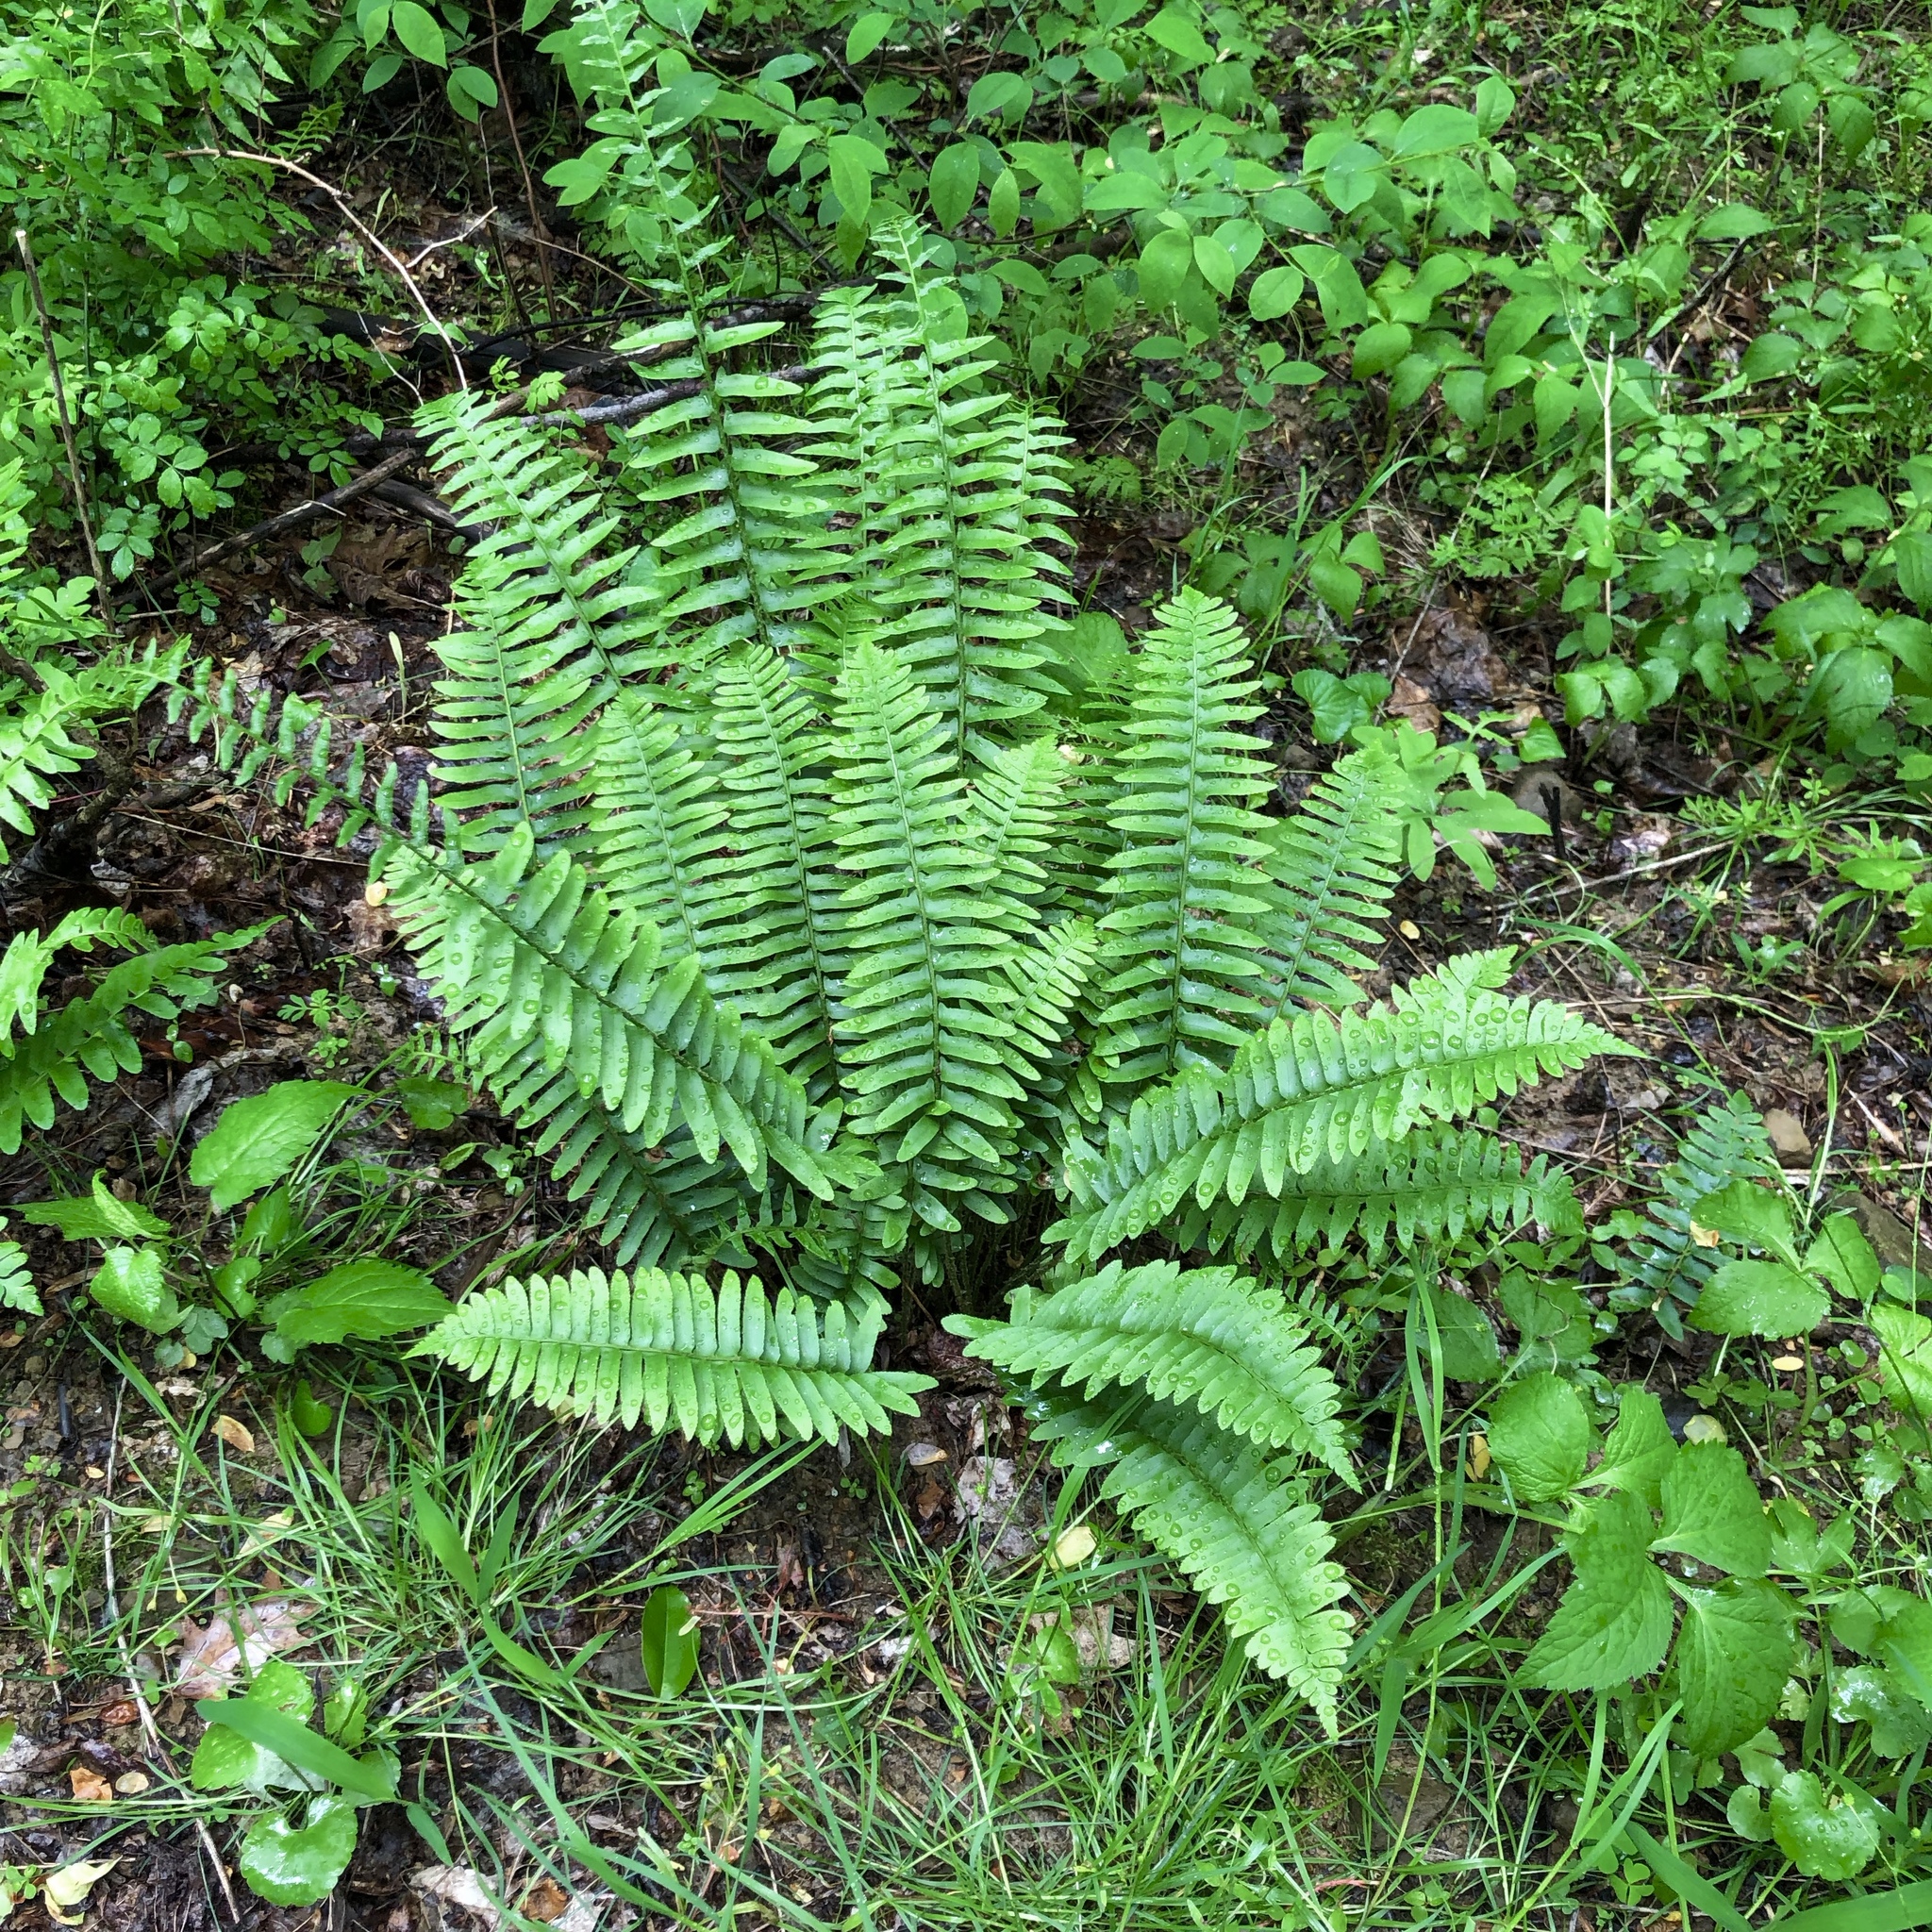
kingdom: Plantae
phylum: Tracheophyta
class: Polypodiopsida
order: Polypodiales
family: Dryopteridaceae
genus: Polystichum
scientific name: Polystichum acrostichoides
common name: Christmas fern
